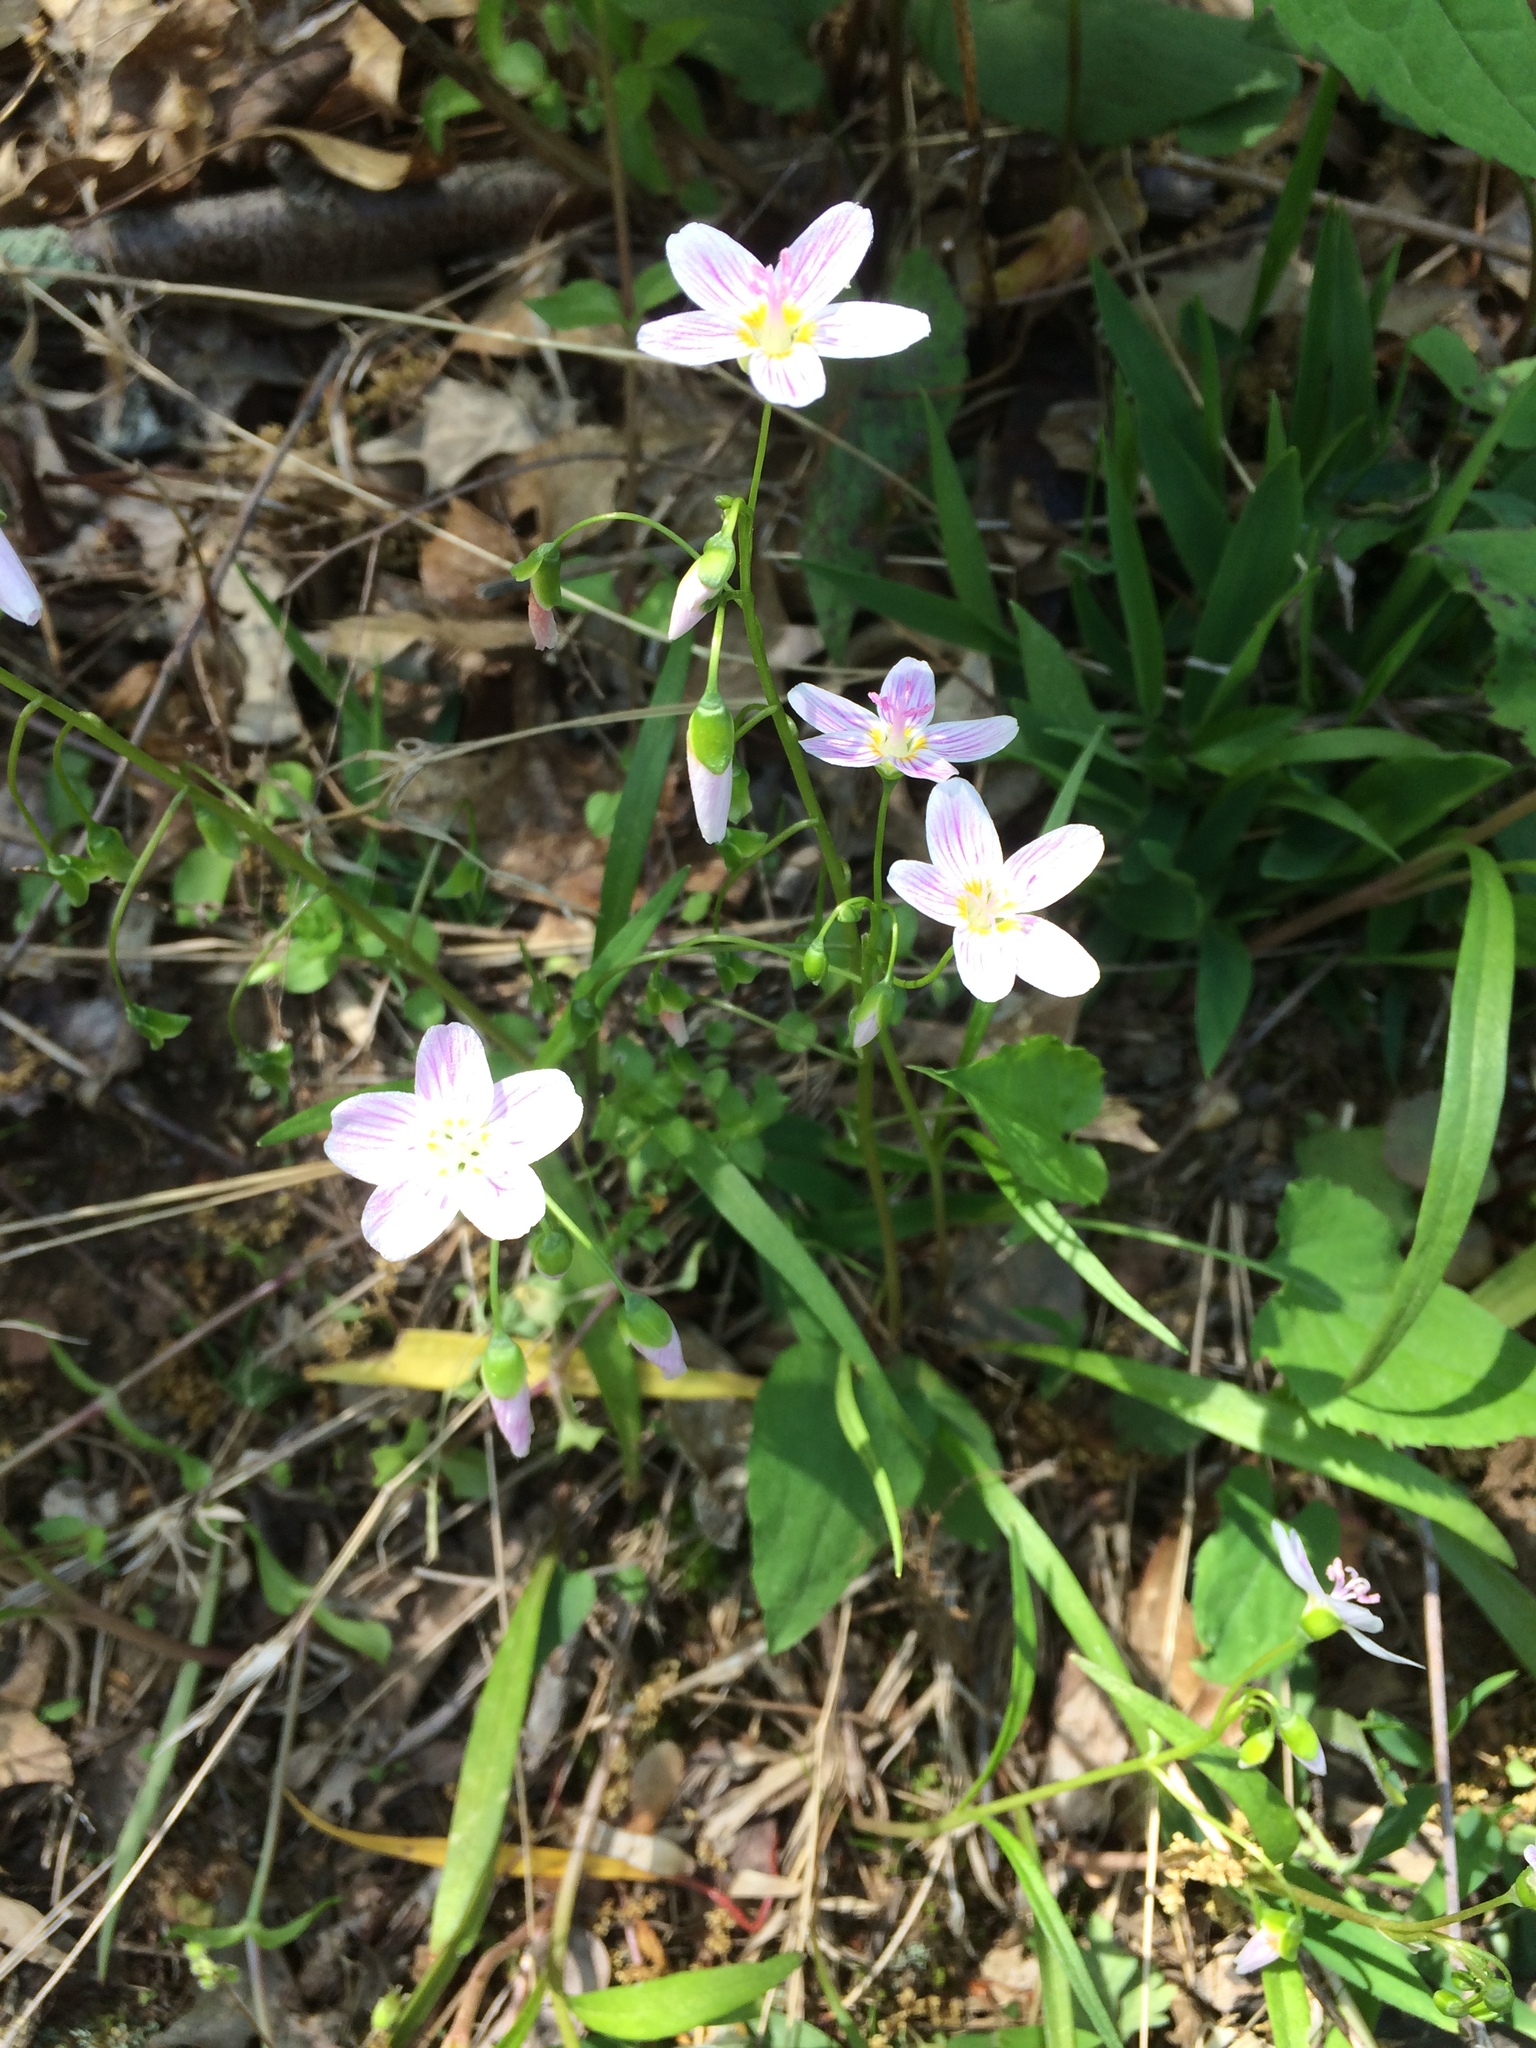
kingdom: Plantae
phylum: Tracheophyta
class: Magnoliopsida
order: Caryophyllales
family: Montiaceae
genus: Claytonia
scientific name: Claytonia virginica
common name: Virginia springbeauty
